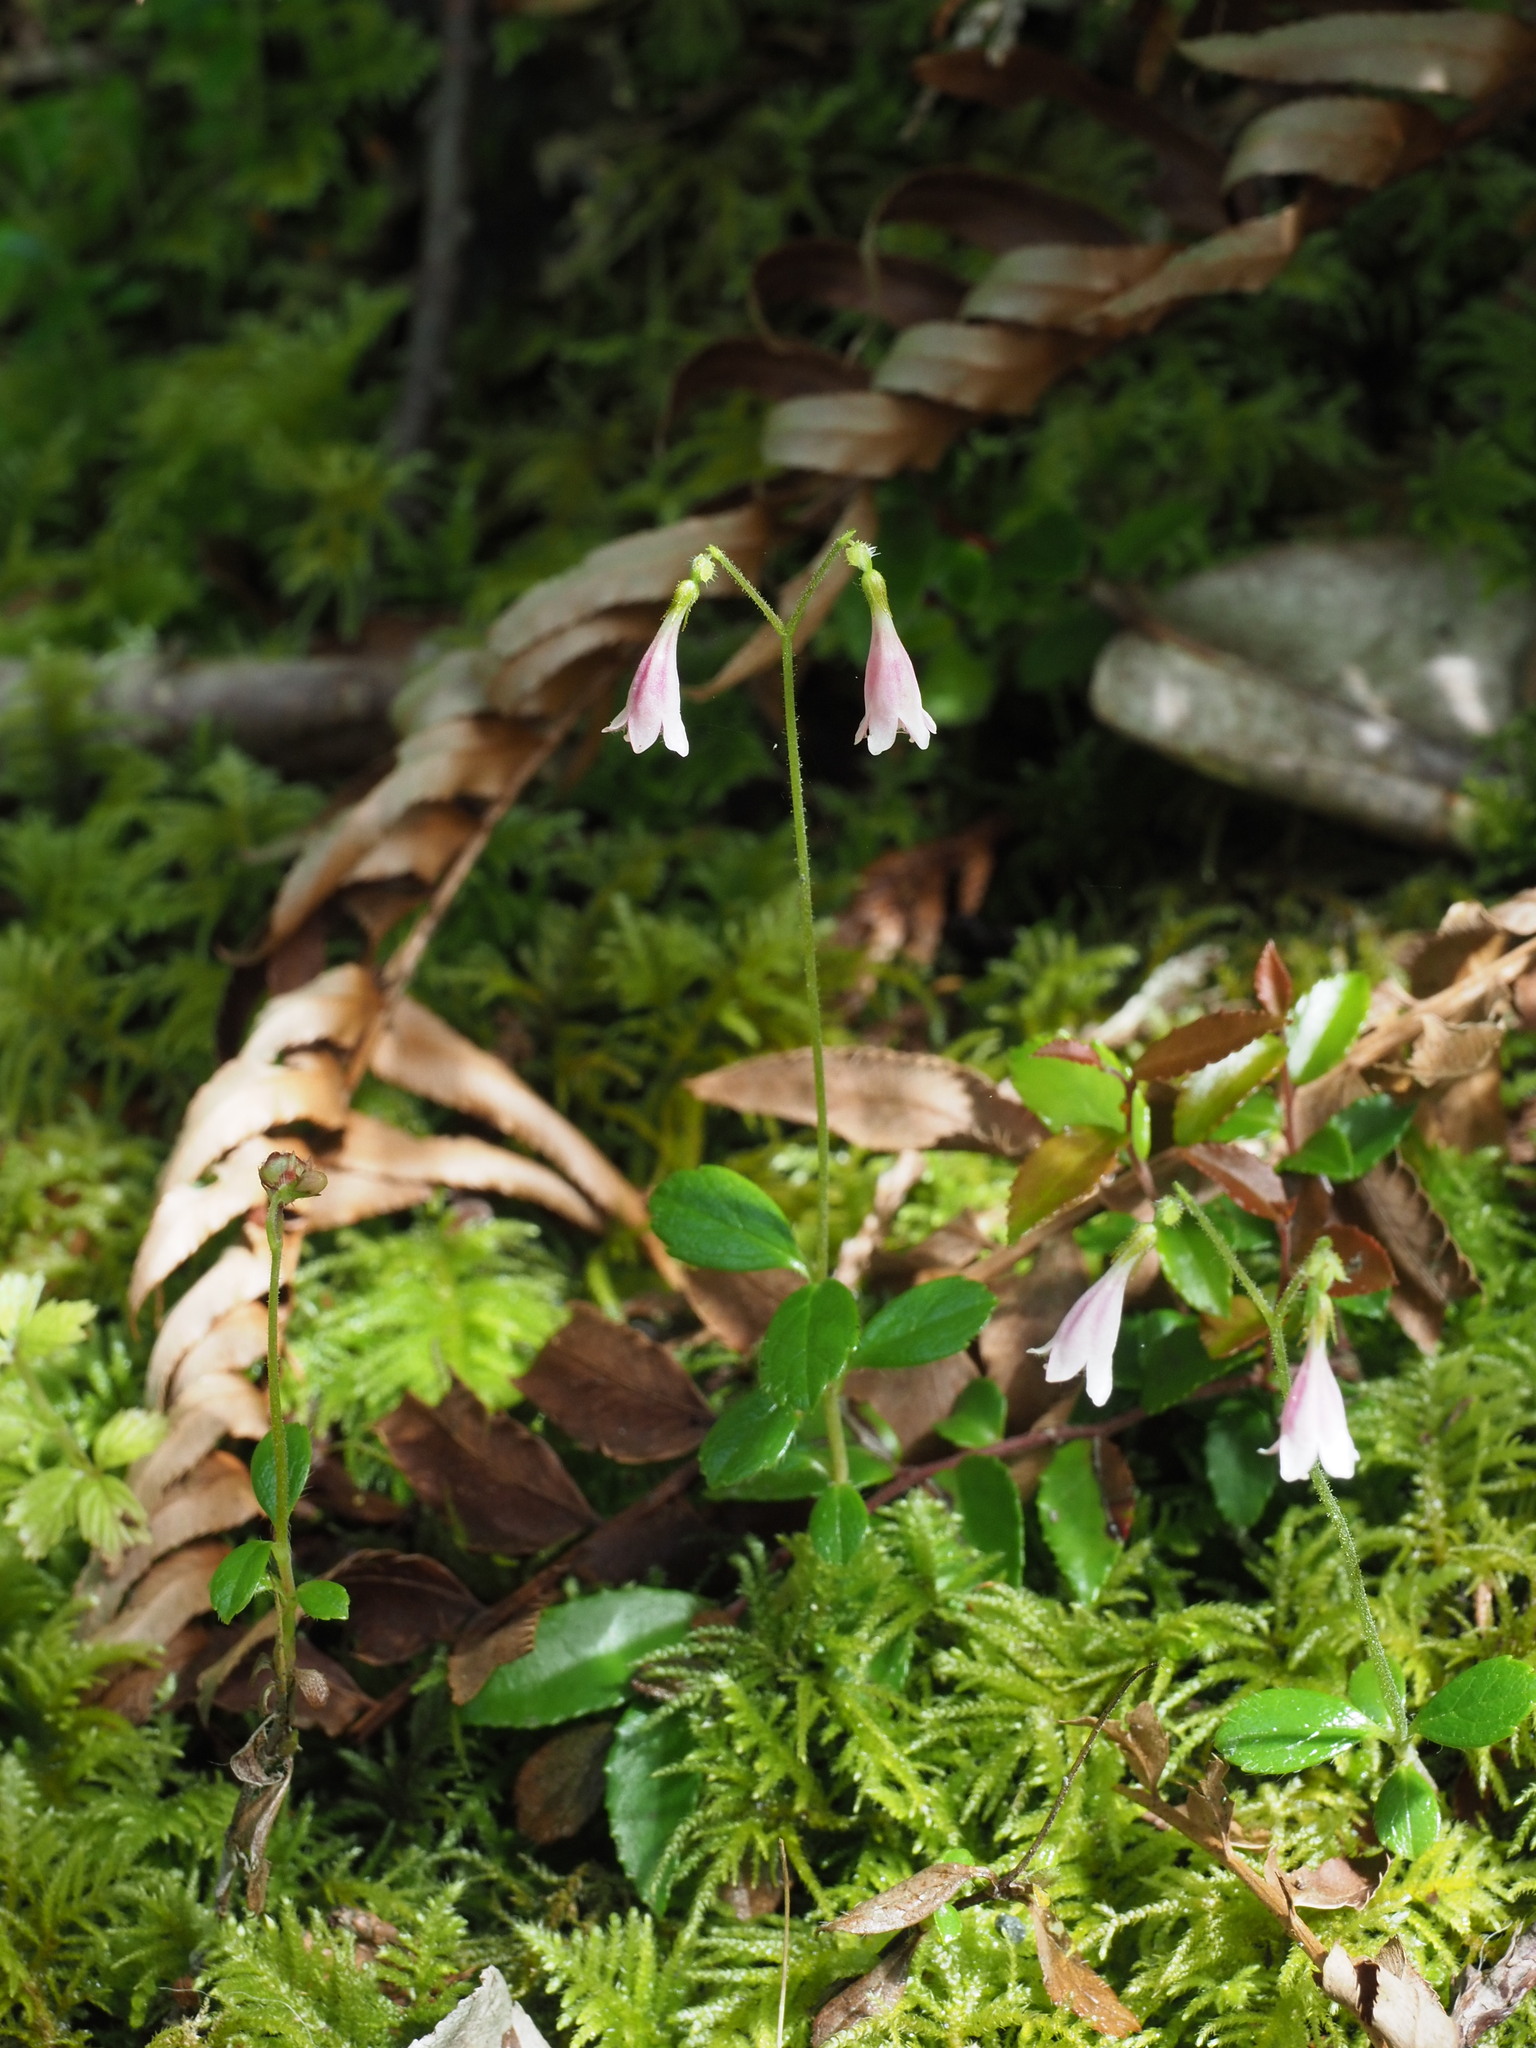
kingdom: Plantae
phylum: Tracheophyta
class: Magnoliopsida
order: Dipsacales
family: Caprifoliaceae
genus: Linnaea
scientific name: Linnaea borealis
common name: Twinflower
